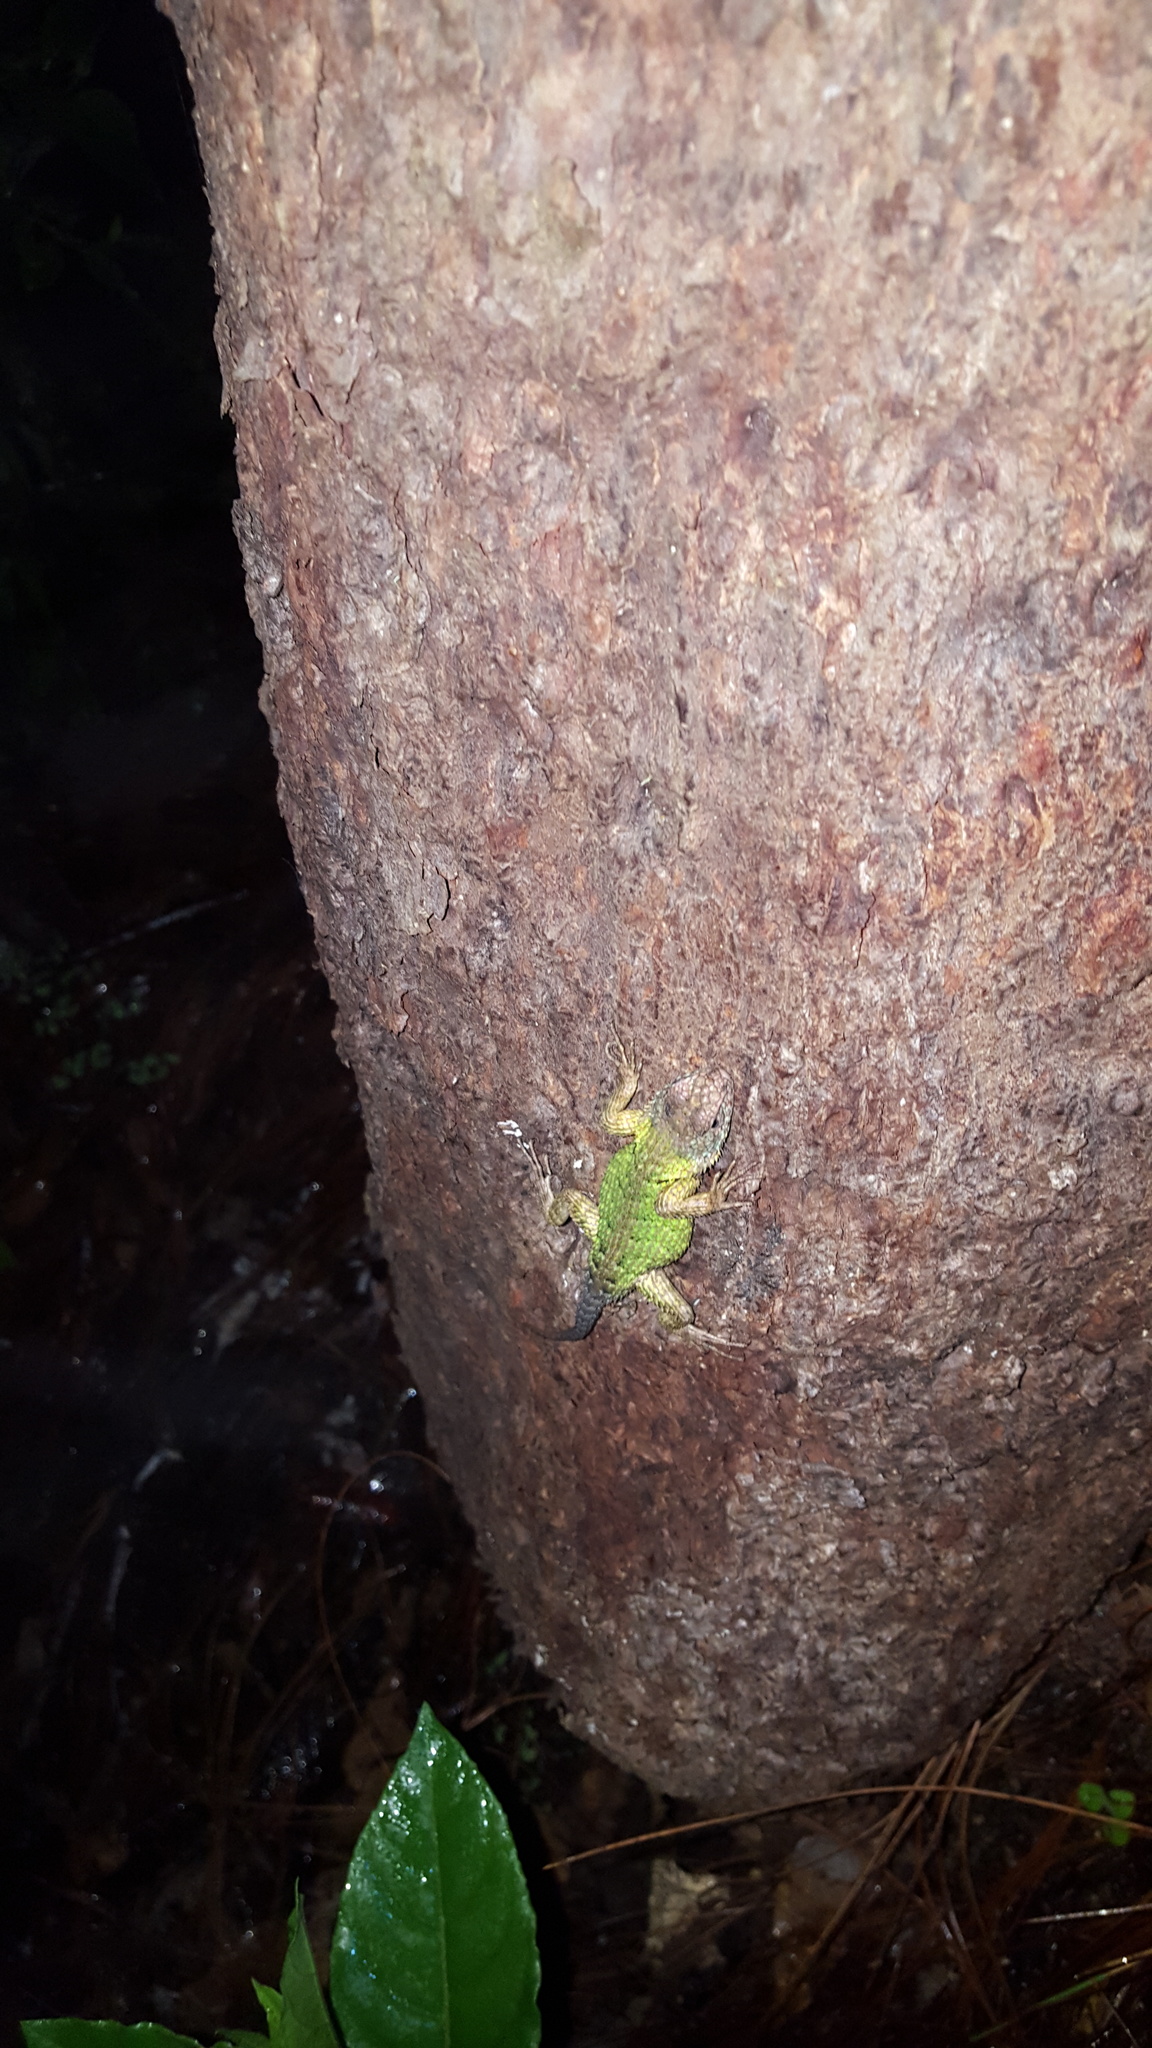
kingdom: Animalia
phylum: Chordata
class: Squamata
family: Phrynosomatidae
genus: Sceloporus
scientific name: Sceloporus formosus
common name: Mexican emerald spiny lizard
